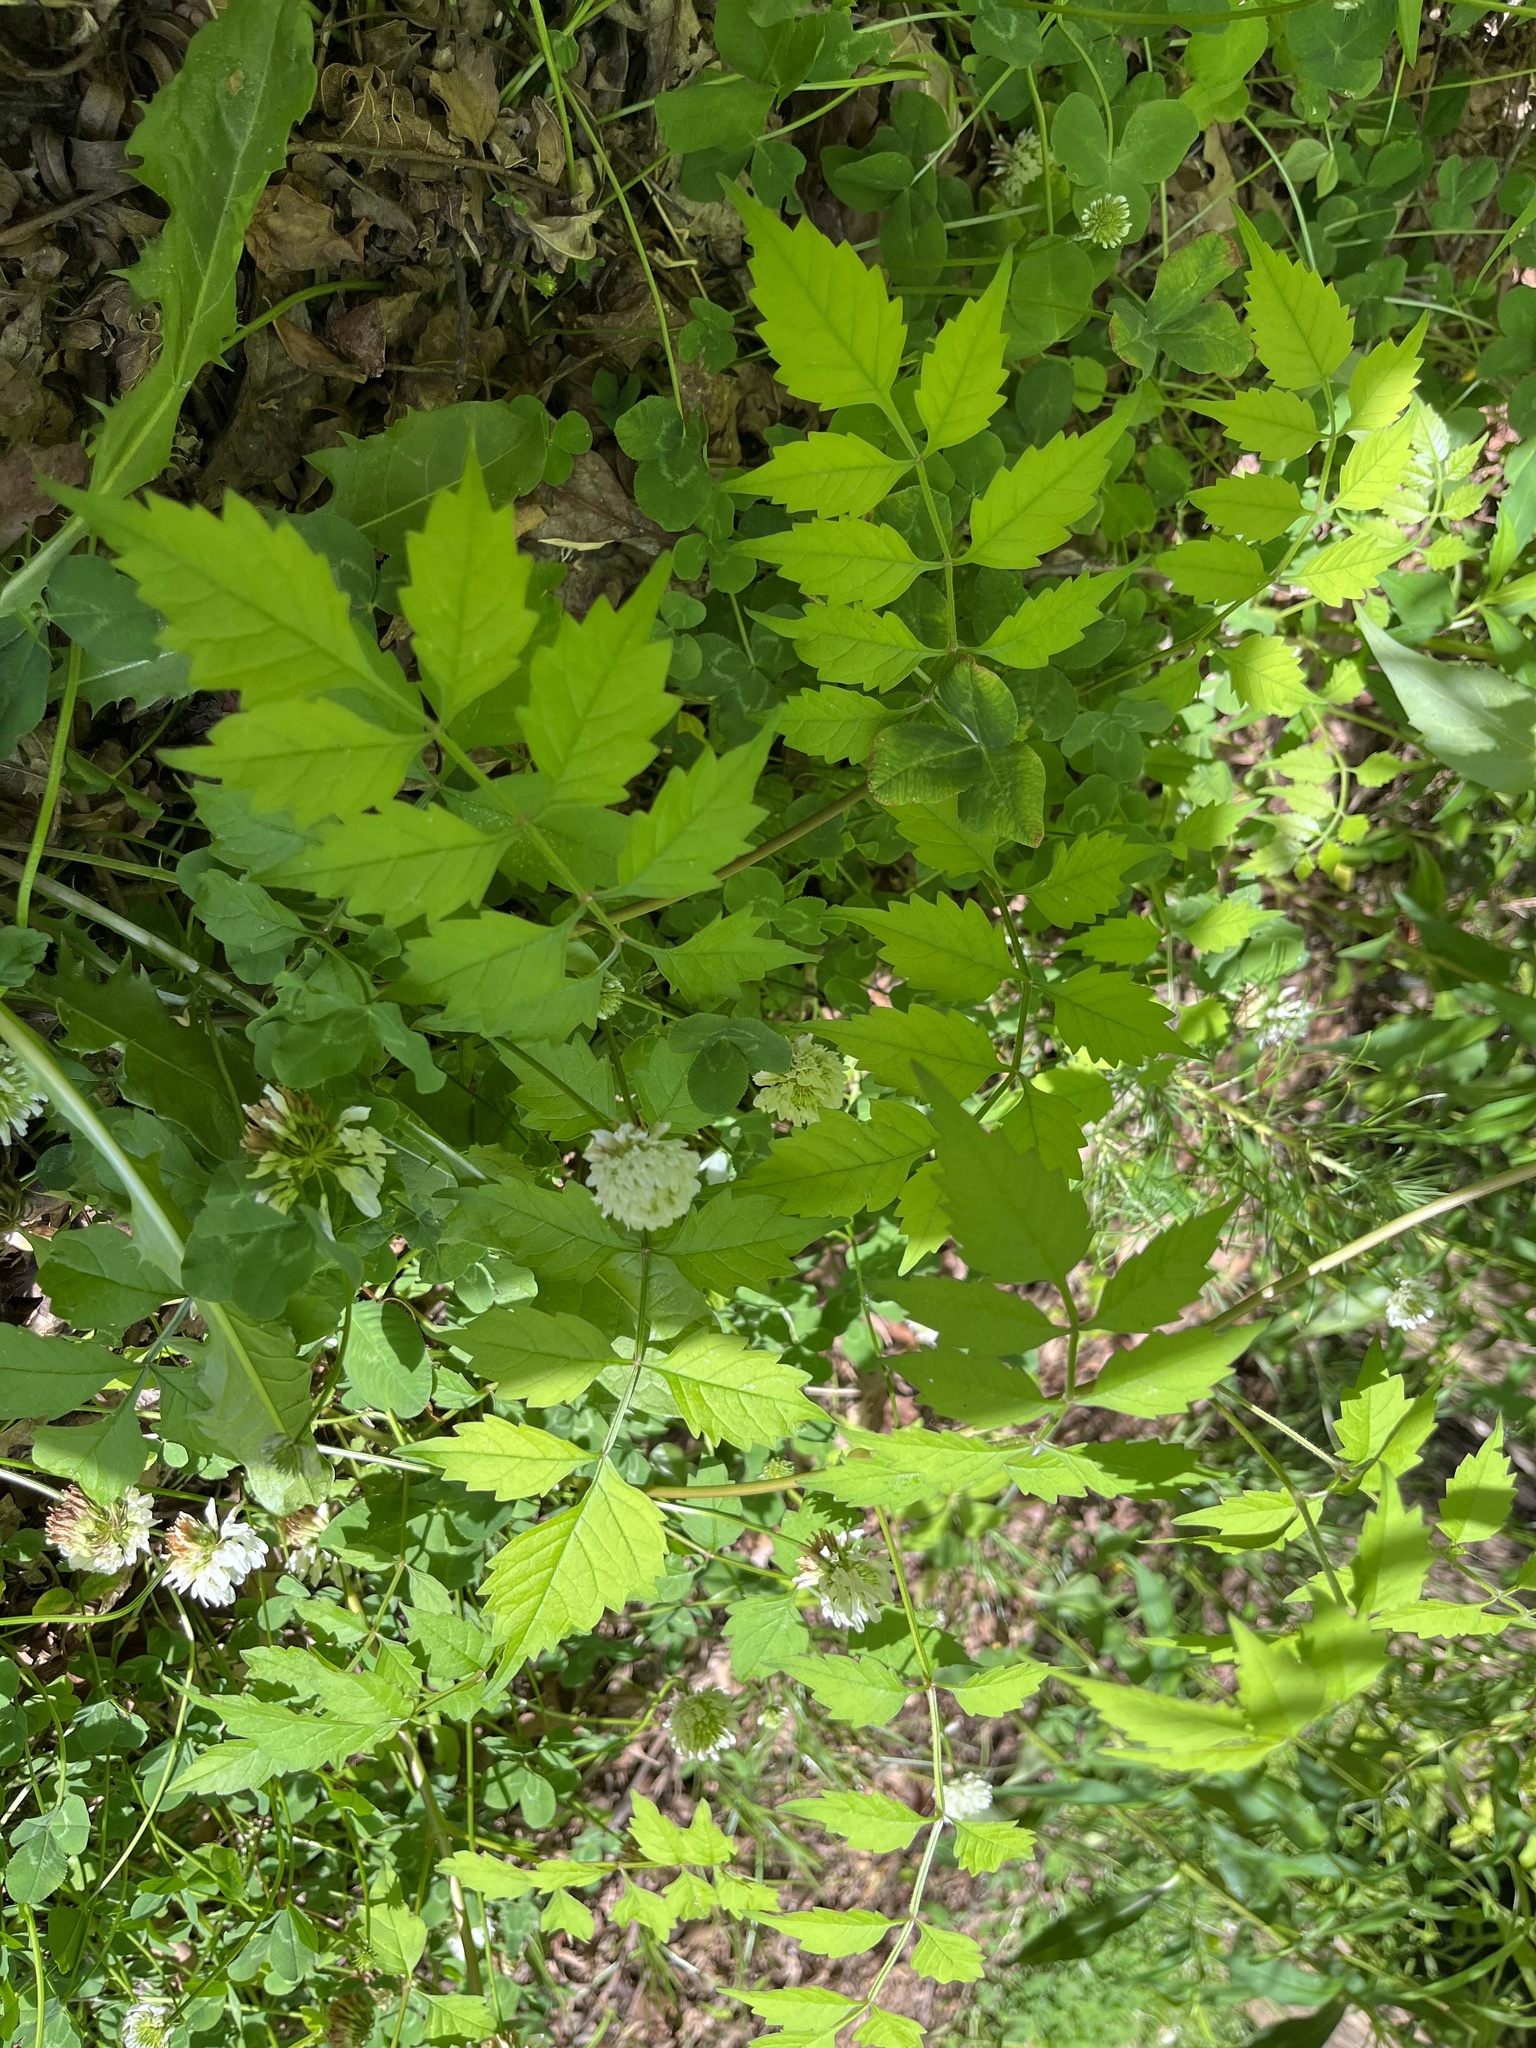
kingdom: Plantae
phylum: Tracheophyta
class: Magnoliopsida
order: Lamiales
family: Bignoniaceae
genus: Campsis
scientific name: Campsis radicans
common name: Trumpet-creeper
